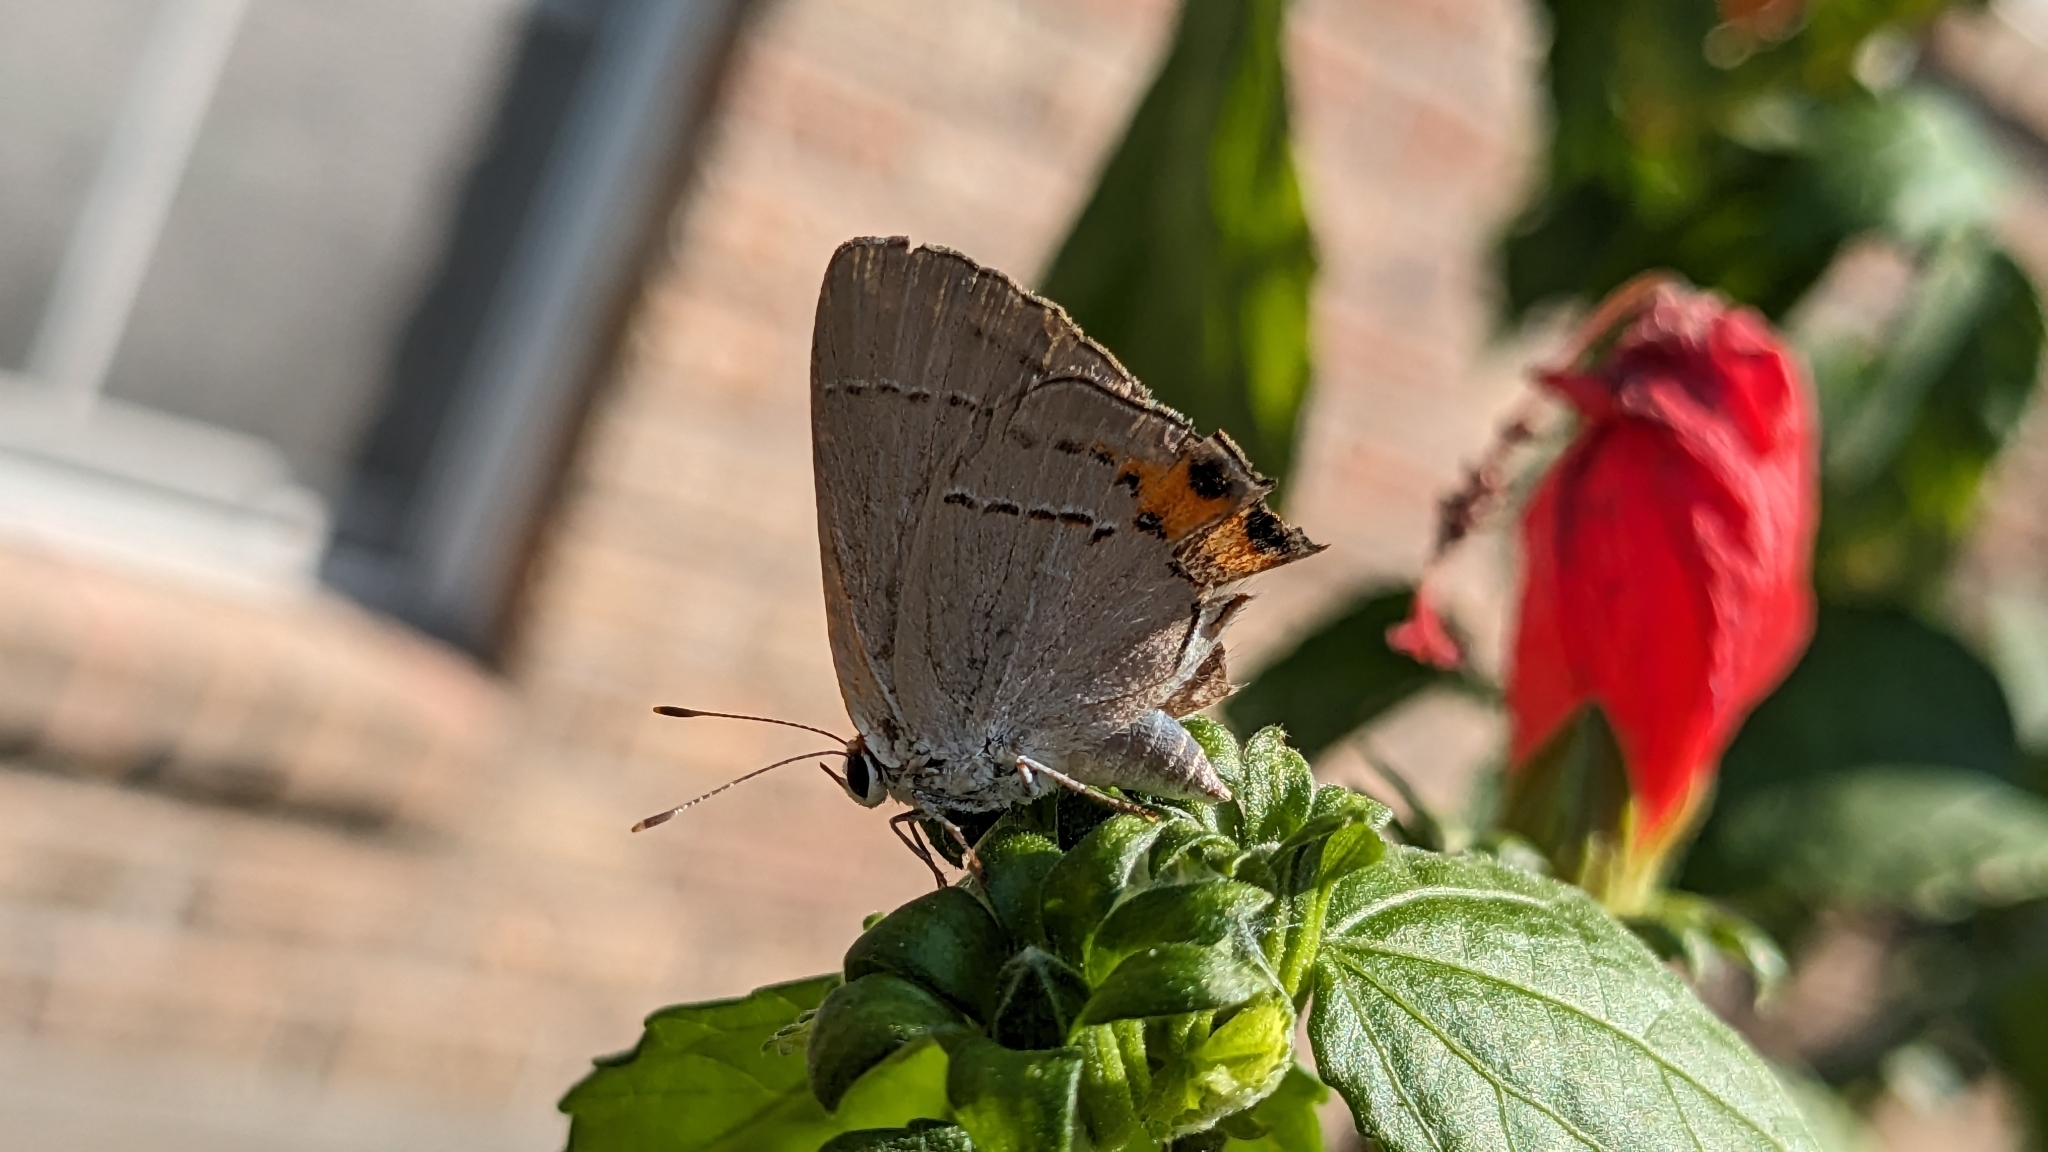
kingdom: Animalia
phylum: Arthropoda
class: Insecta
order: Lepidoptera
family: Lycaenidae
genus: Strymon
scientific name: Strymon melinus
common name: Gray hairstreak
